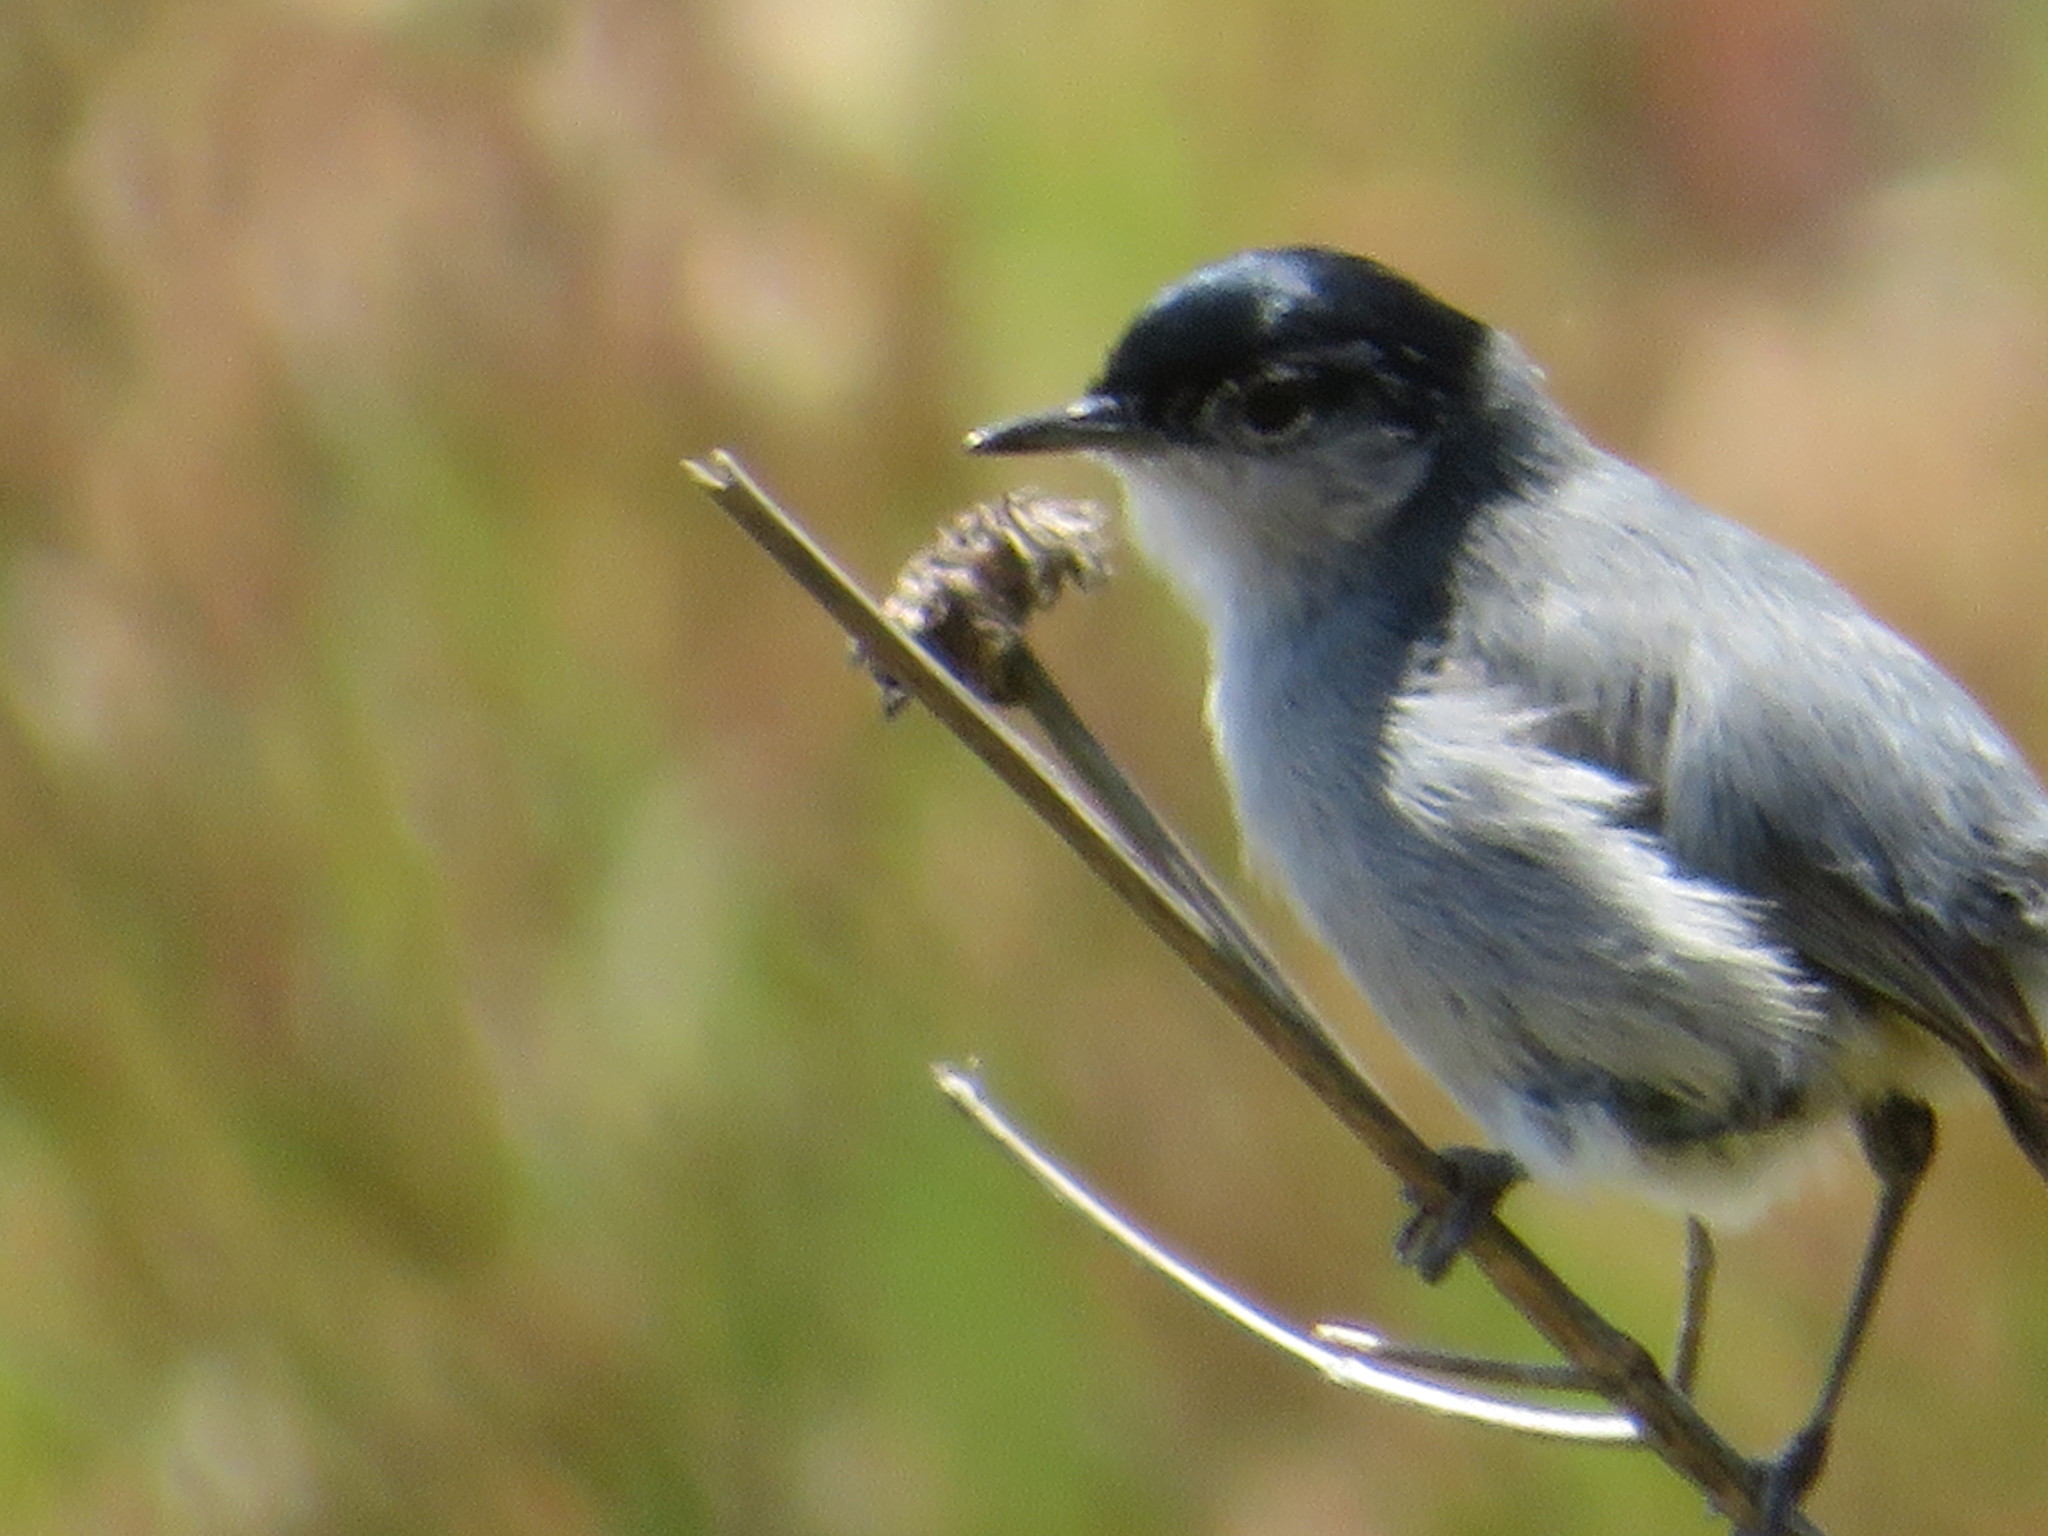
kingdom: Animalia
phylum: Chordata
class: Aves
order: Passeriformes
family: Polioptilidae
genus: Polioptila
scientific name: Polioptila californica
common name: California gnatcatcher
